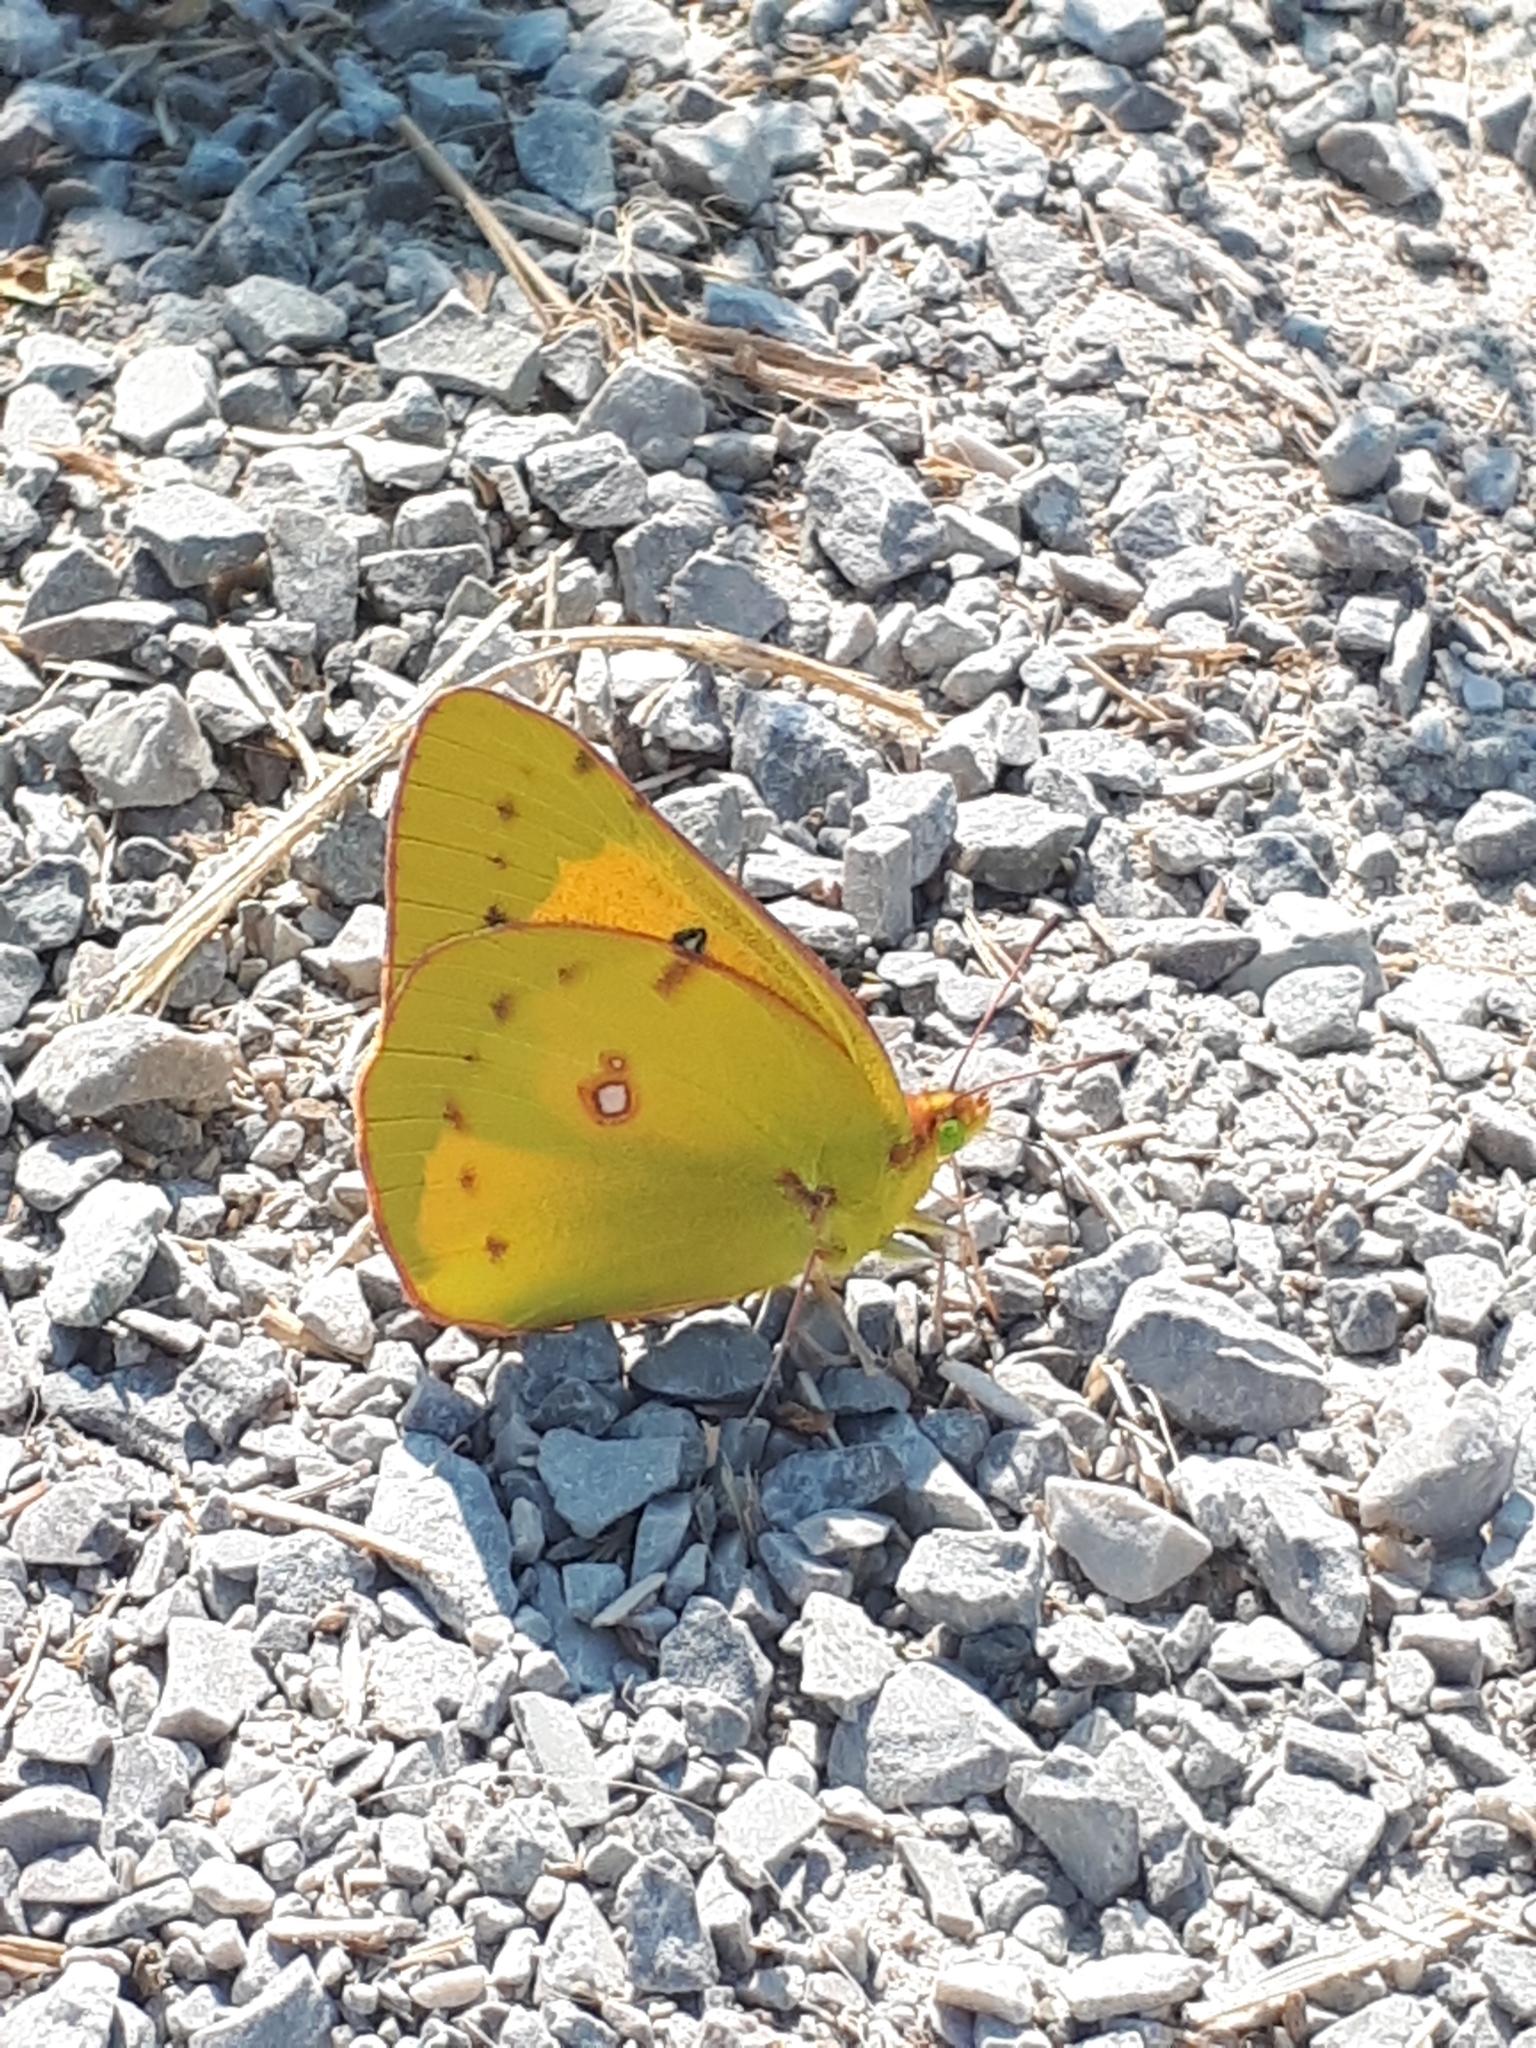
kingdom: Animalia
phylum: Arthropoda
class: Insecta
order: Lepidoptera
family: Pieridae
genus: Colias
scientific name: Colias eurytheme
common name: Alfalfa butterfly
